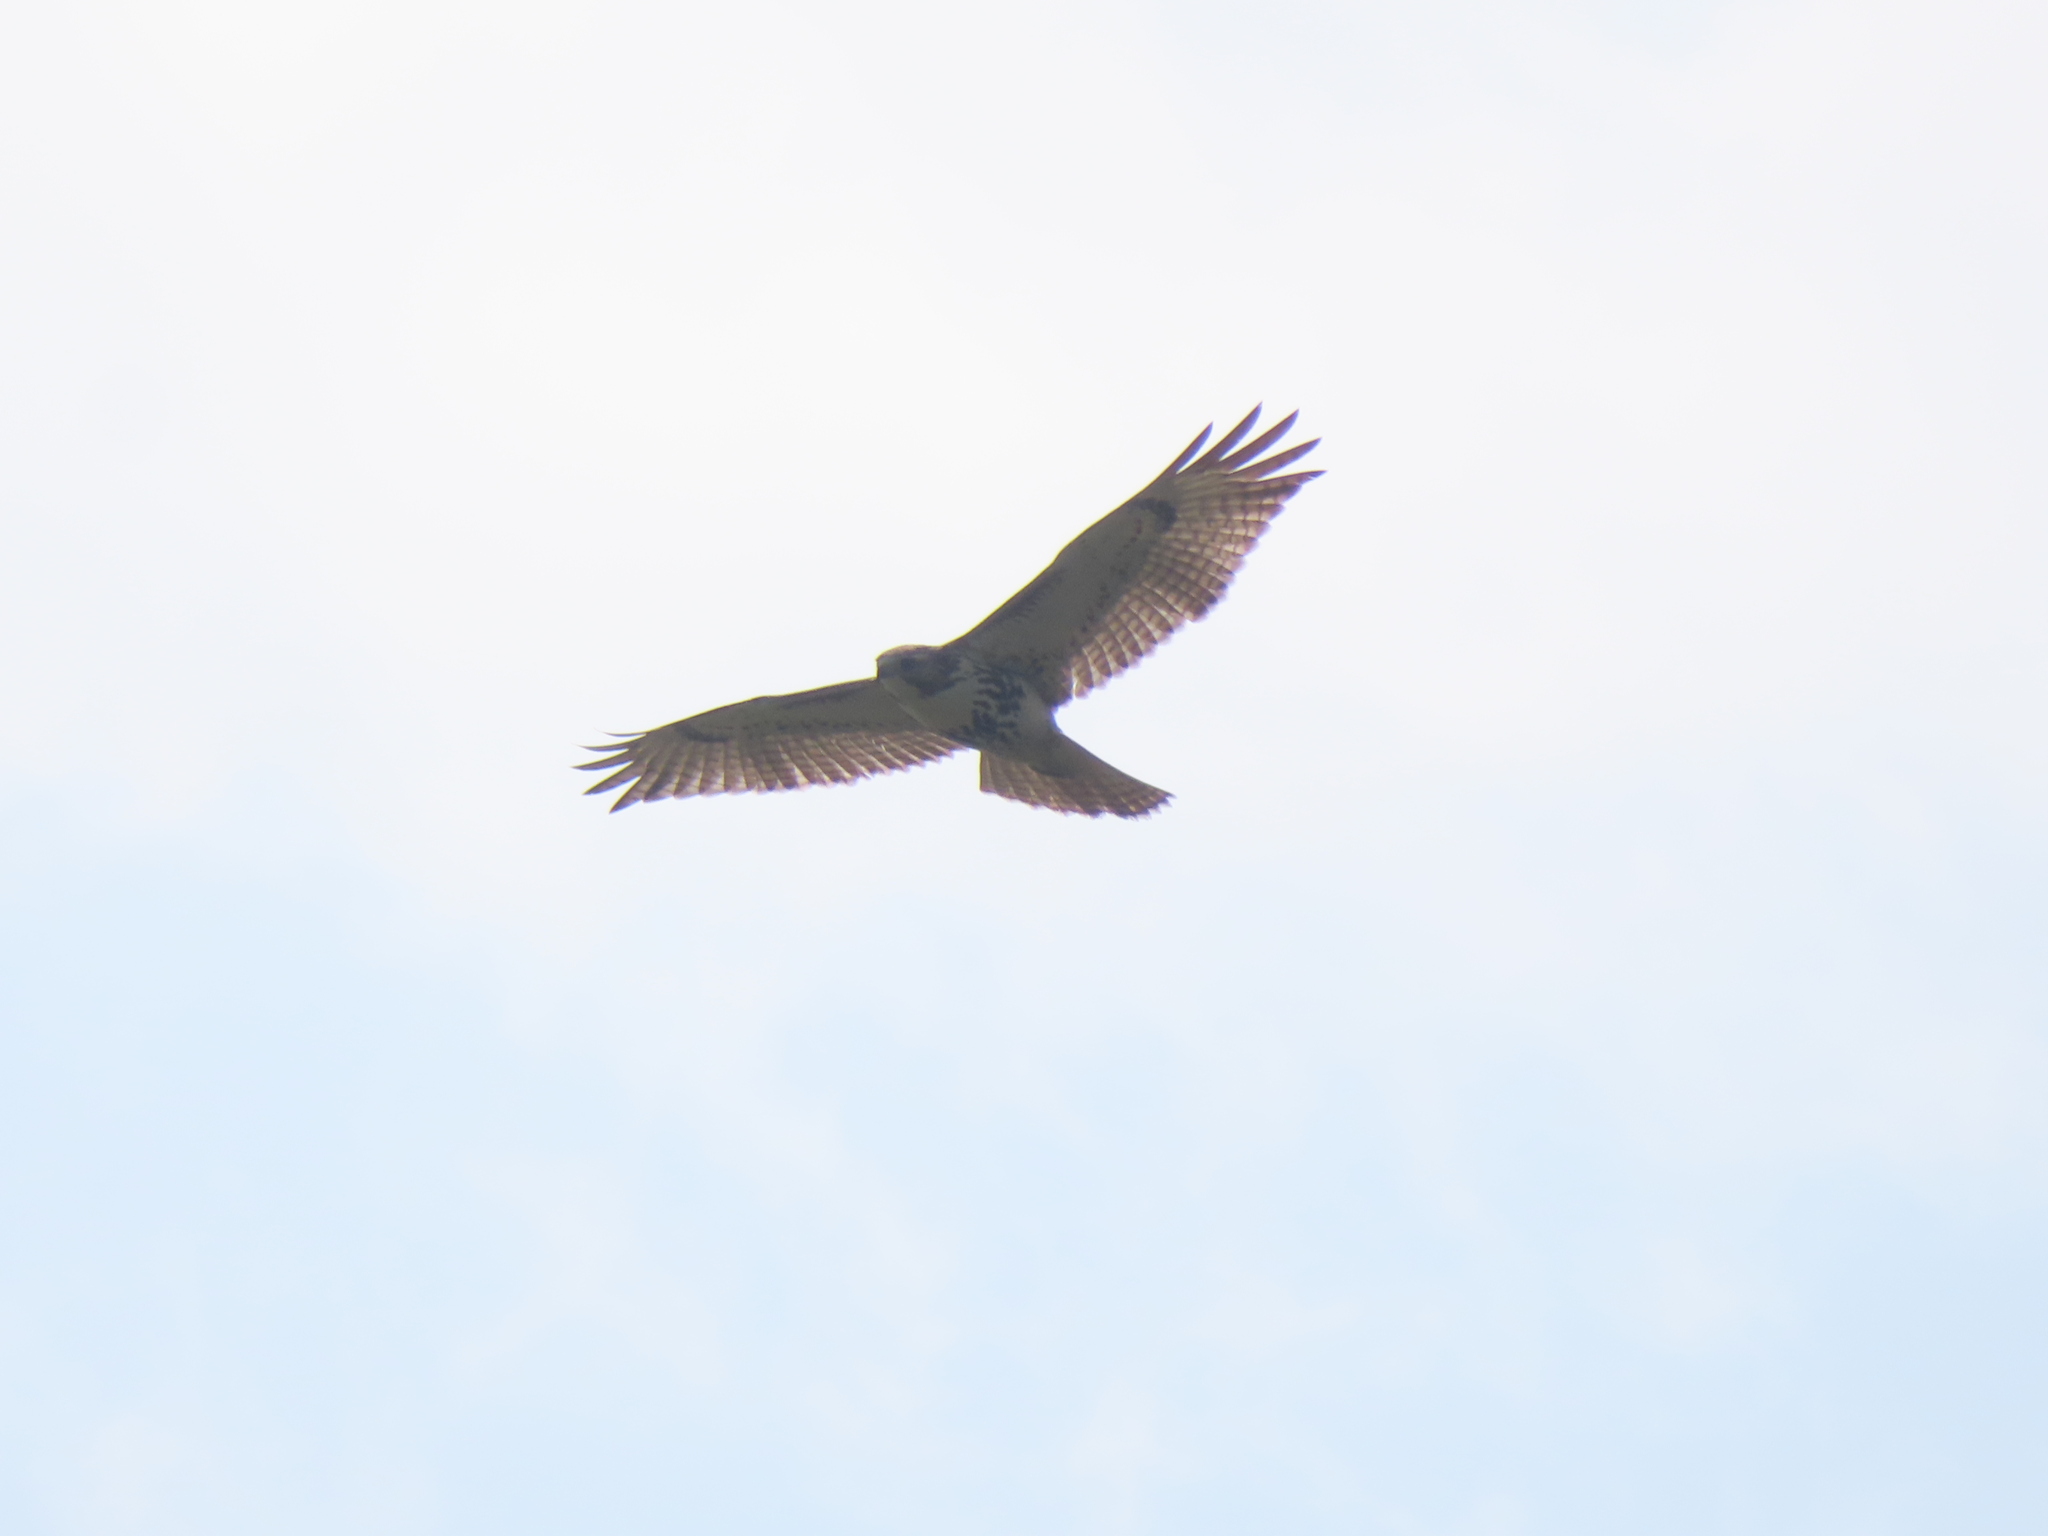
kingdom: Animalia
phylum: Chordata
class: Aves
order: Accipitriformes
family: Accipitridae
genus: Buteo
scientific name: Buteo jamaicensis
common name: Red-tailed hawk
